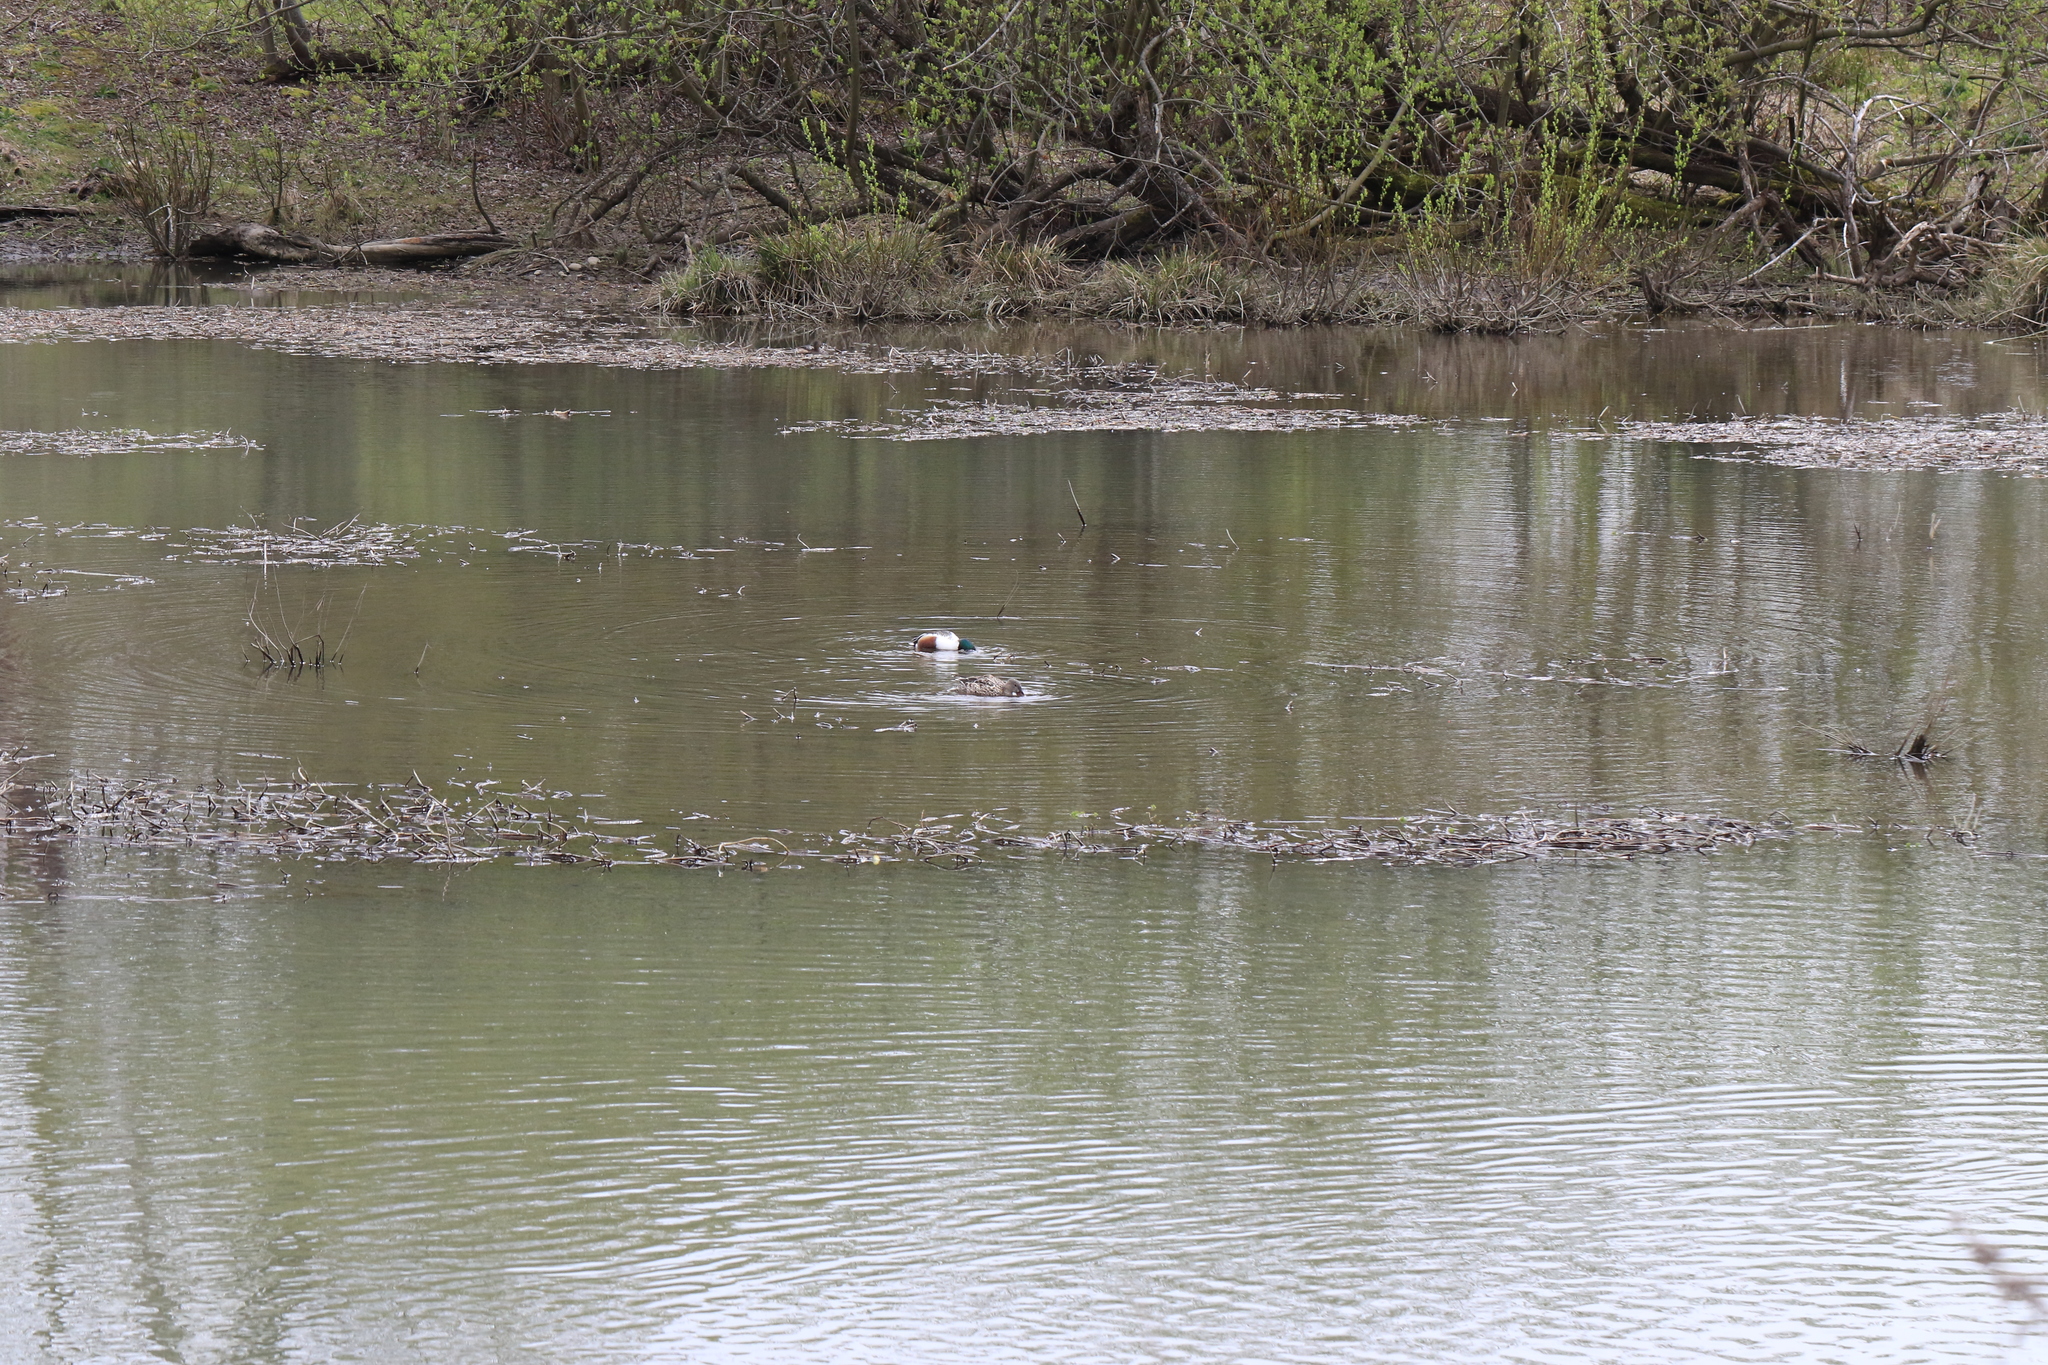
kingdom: Animalia
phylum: Chordata
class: Aves
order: Anseriformes
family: Anatidae
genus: Spatula
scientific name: Spatula clypeata
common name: Northern shoveler
